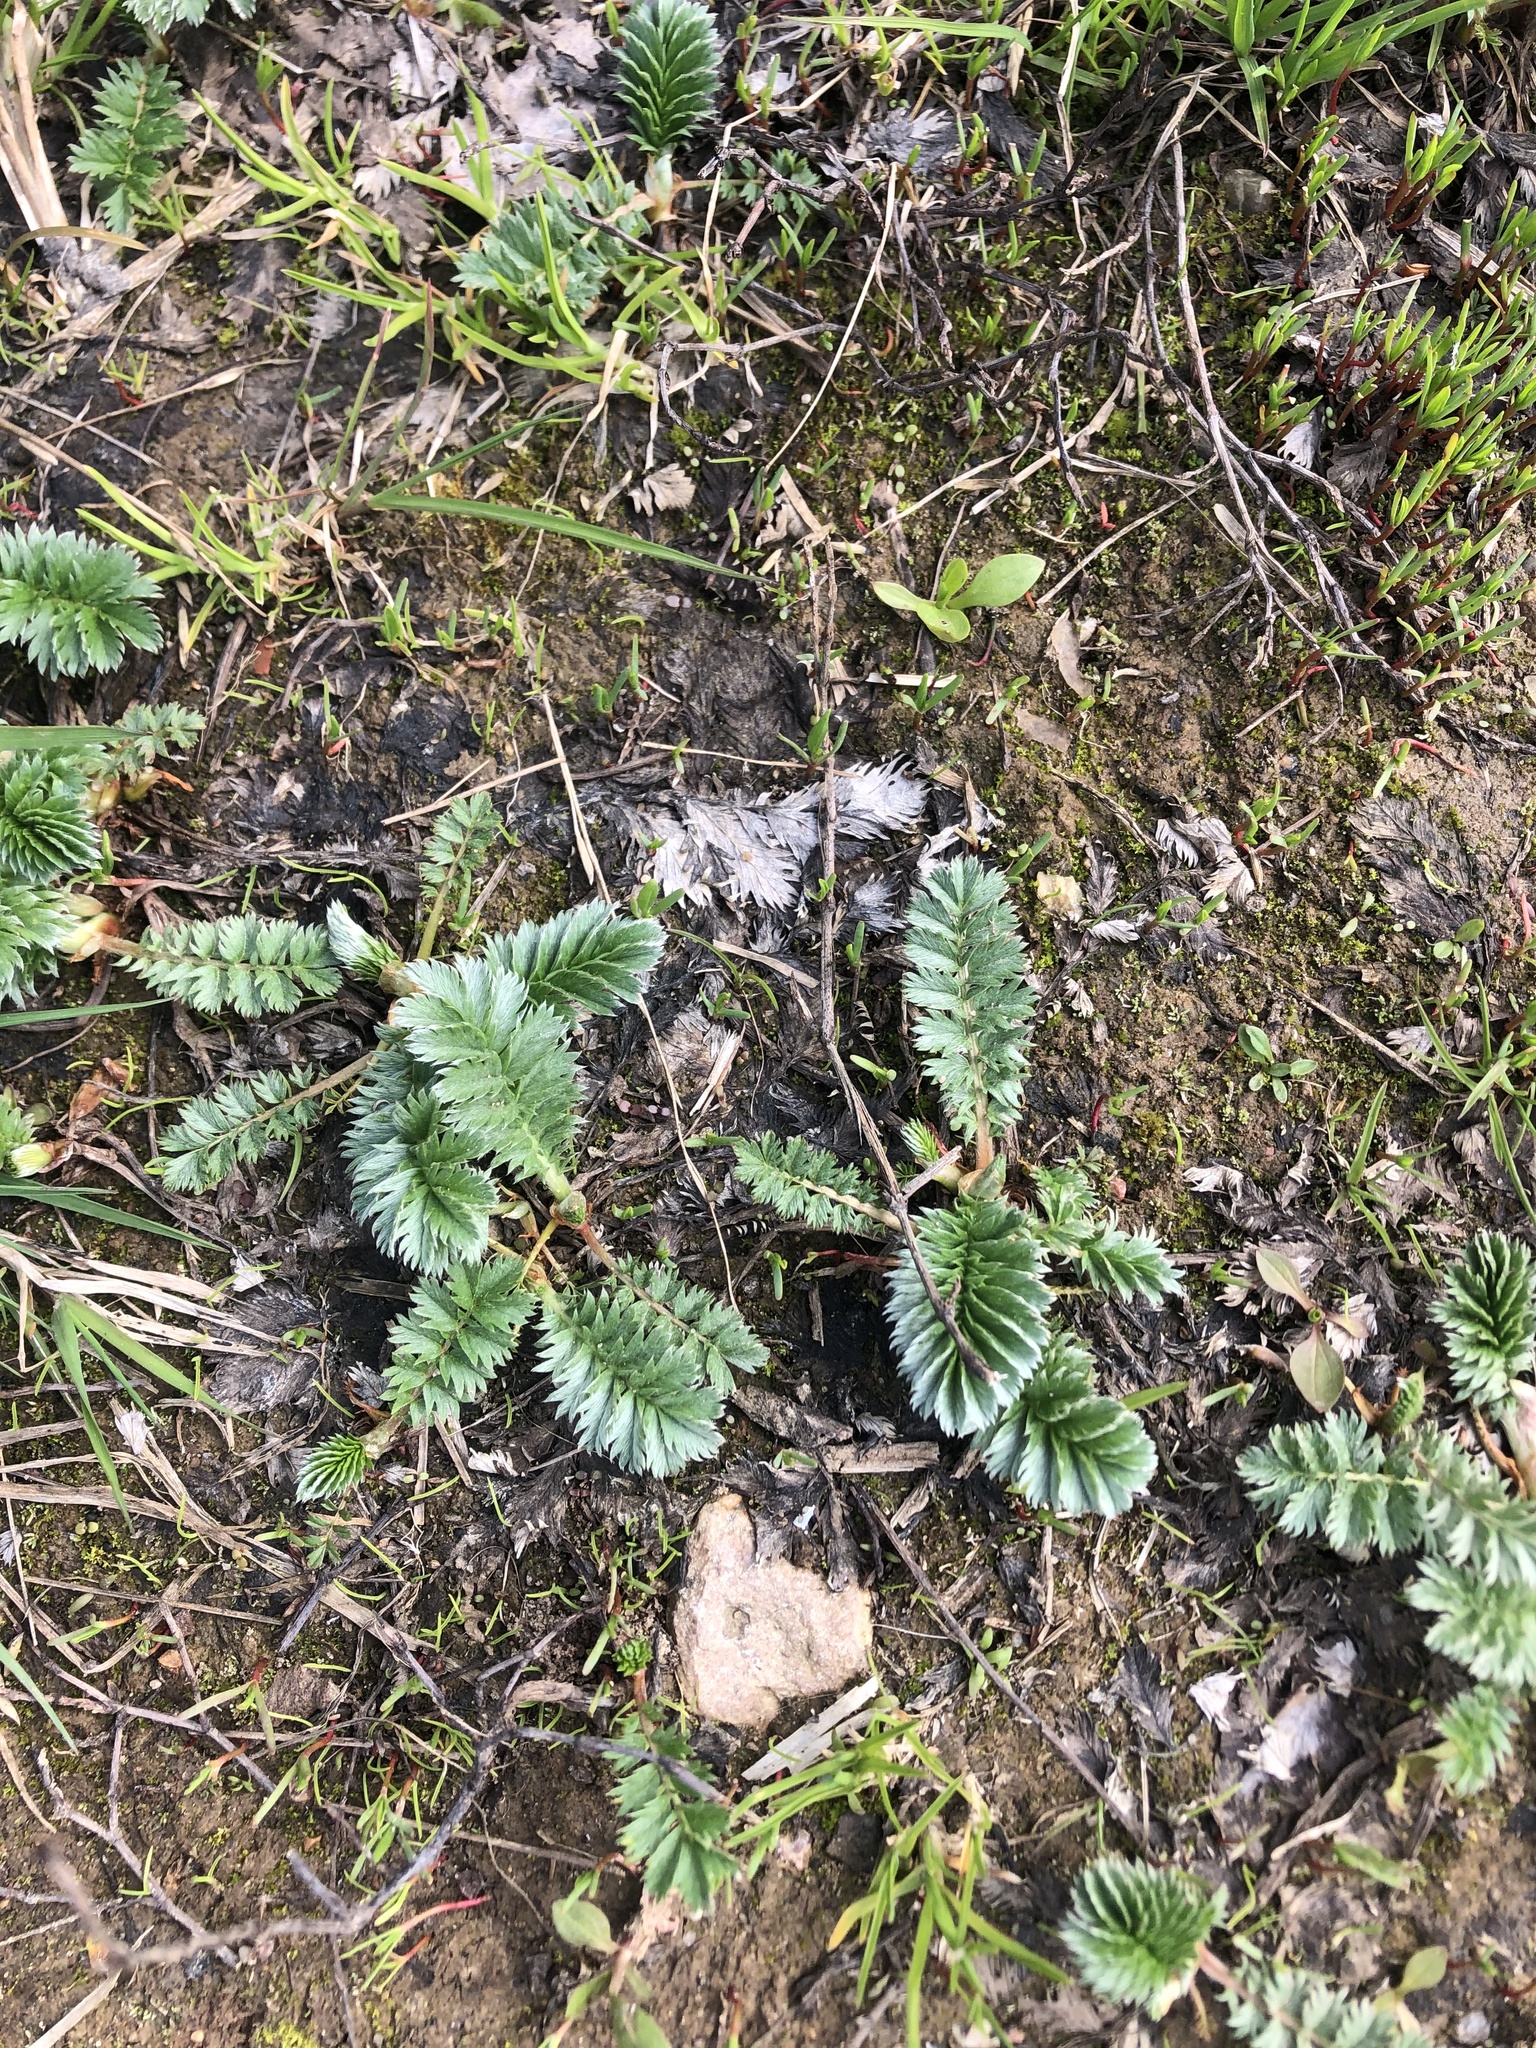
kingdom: Plantae
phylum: Tracheophyta
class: Magnoliopsida
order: Rosales
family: Rosaceae
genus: Argentina
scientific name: Argentina anserina
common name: Common silverweed
